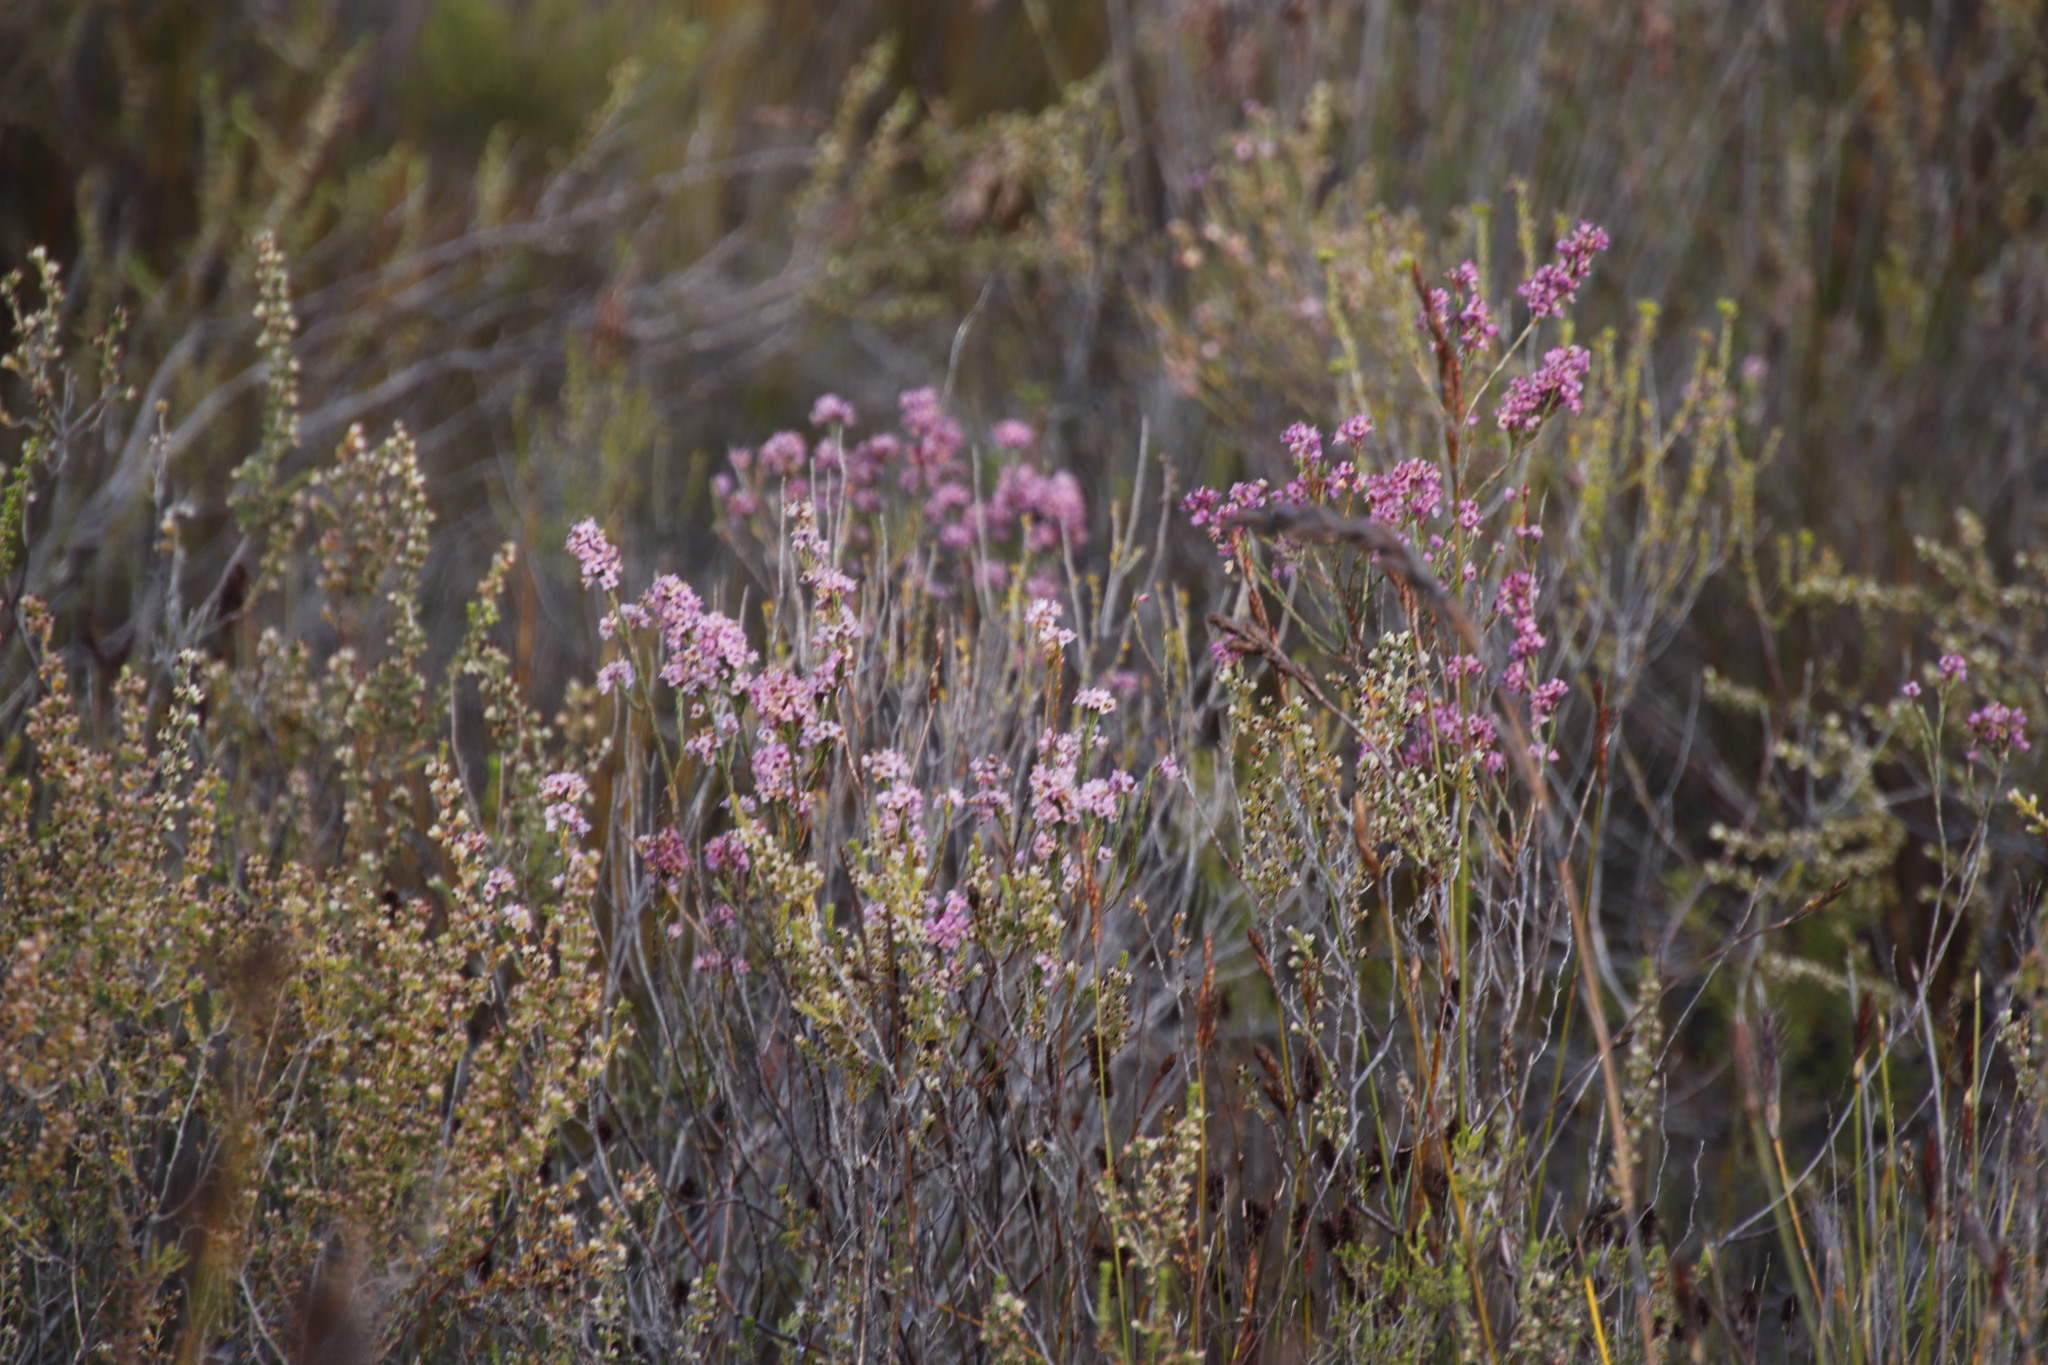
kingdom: Plantae
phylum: Tracheophyta
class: Magnoliopsida
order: Ericales
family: Ericaceae
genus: Erica
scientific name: Erica corifolia
